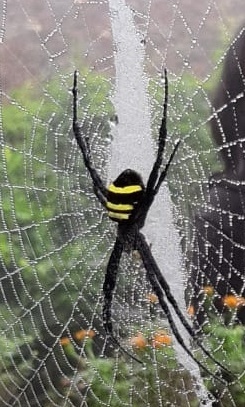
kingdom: Animalia
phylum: Arthropoda
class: Arachnida
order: Araneae
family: Araneidae
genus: Argiope
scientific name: Argiope caesarea
